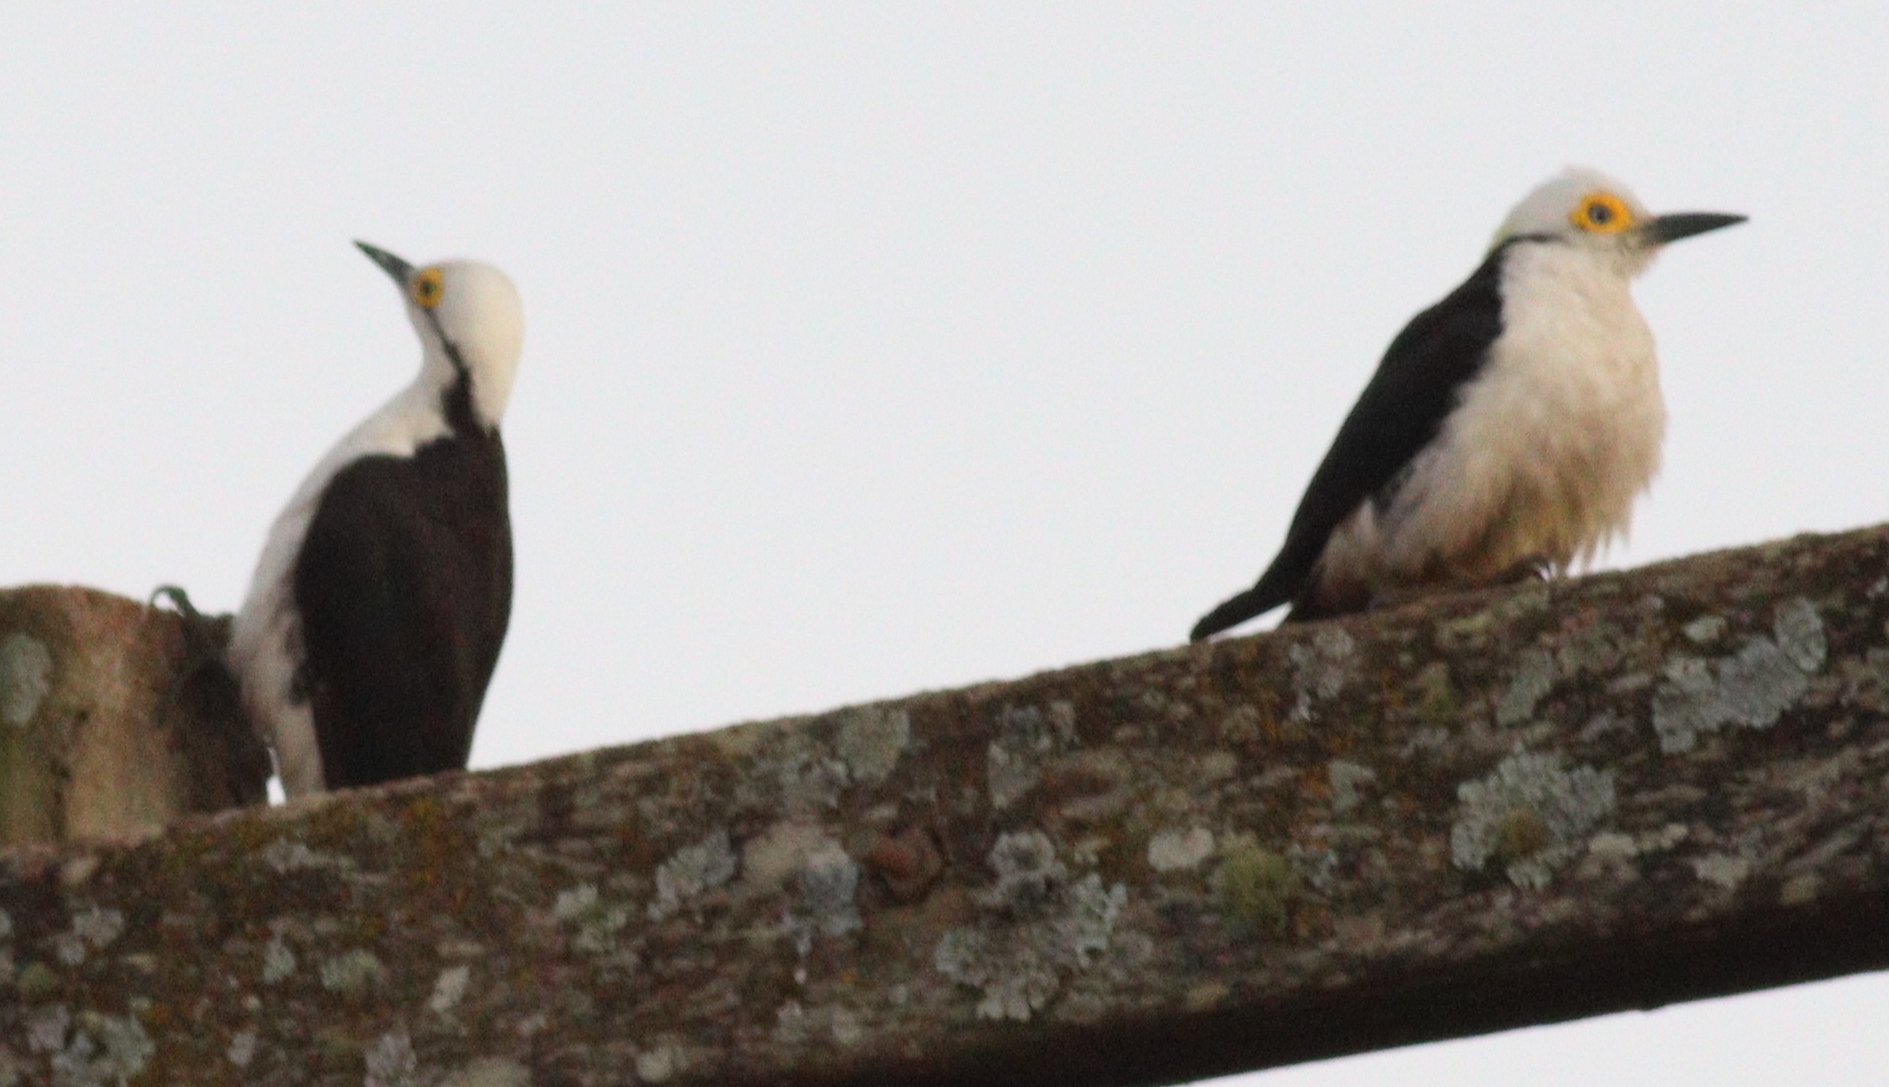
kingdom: Animalia
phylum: Chordata
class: Aves
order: Piciformes
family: Picidae
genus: Melanerpes
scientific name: Melanerpes candidus
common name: White woodpecker
